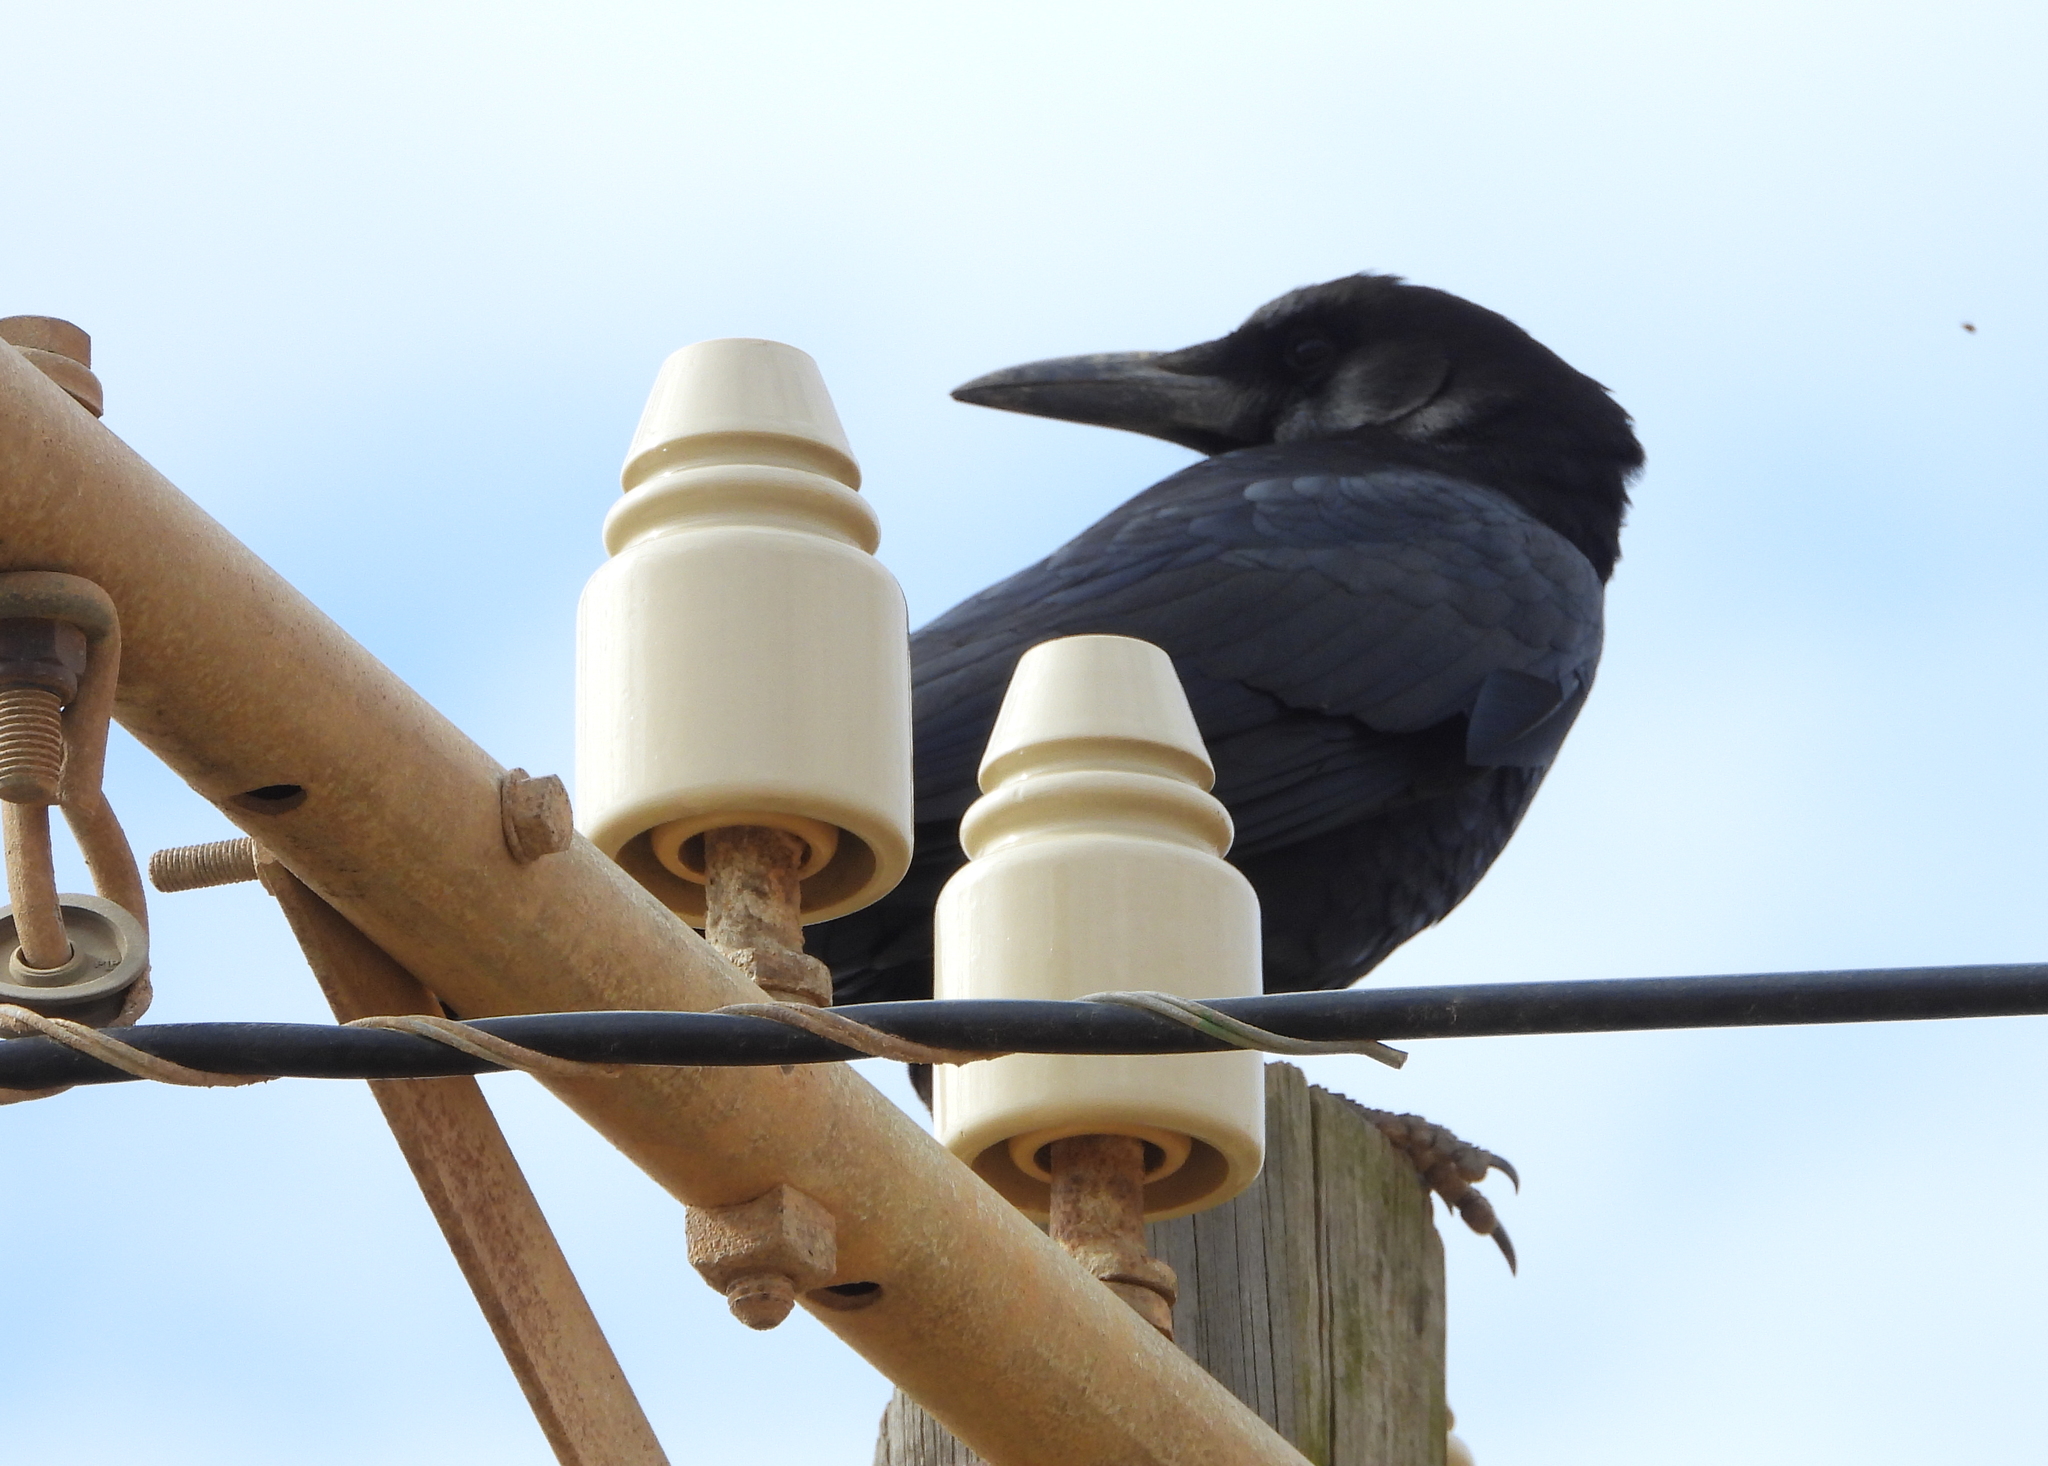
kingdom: Animalia
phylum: Chordata
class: Aves
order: Passeriformes
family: Corvidae
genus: Corvus
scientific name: Corvus capensis
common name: Cape crow
